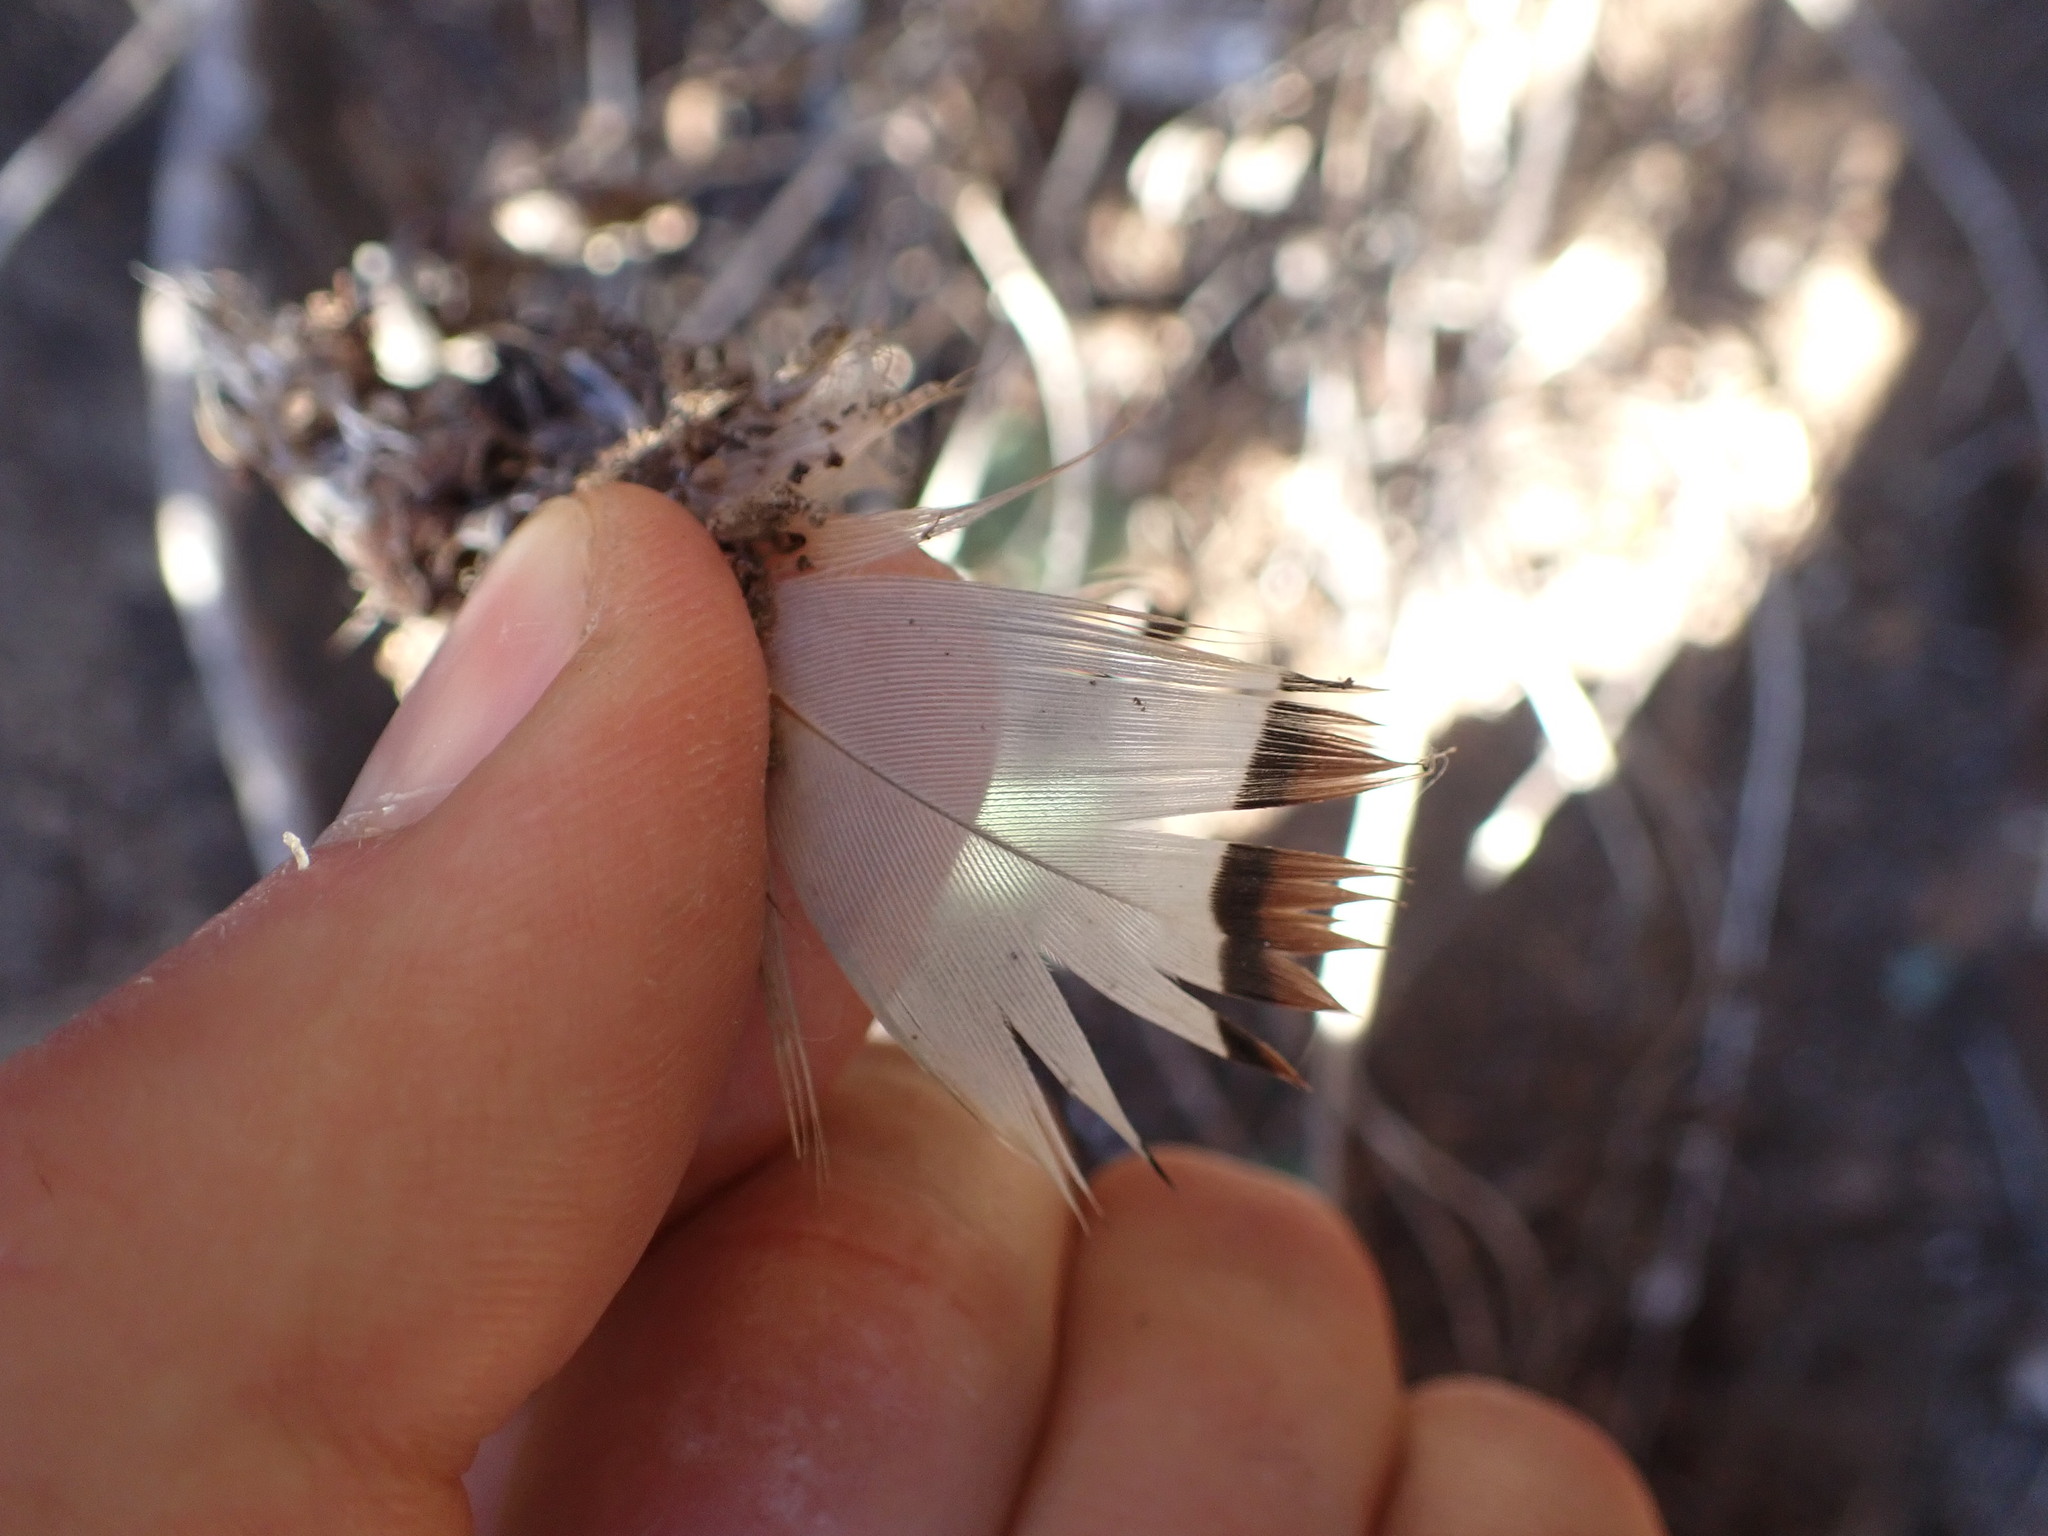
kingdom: Animalia
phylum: Chordata
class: Aves
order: Galliformes
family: Phasianidae
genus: Alectoris
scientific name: Alectoris rufa
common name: Red-legged partridge
